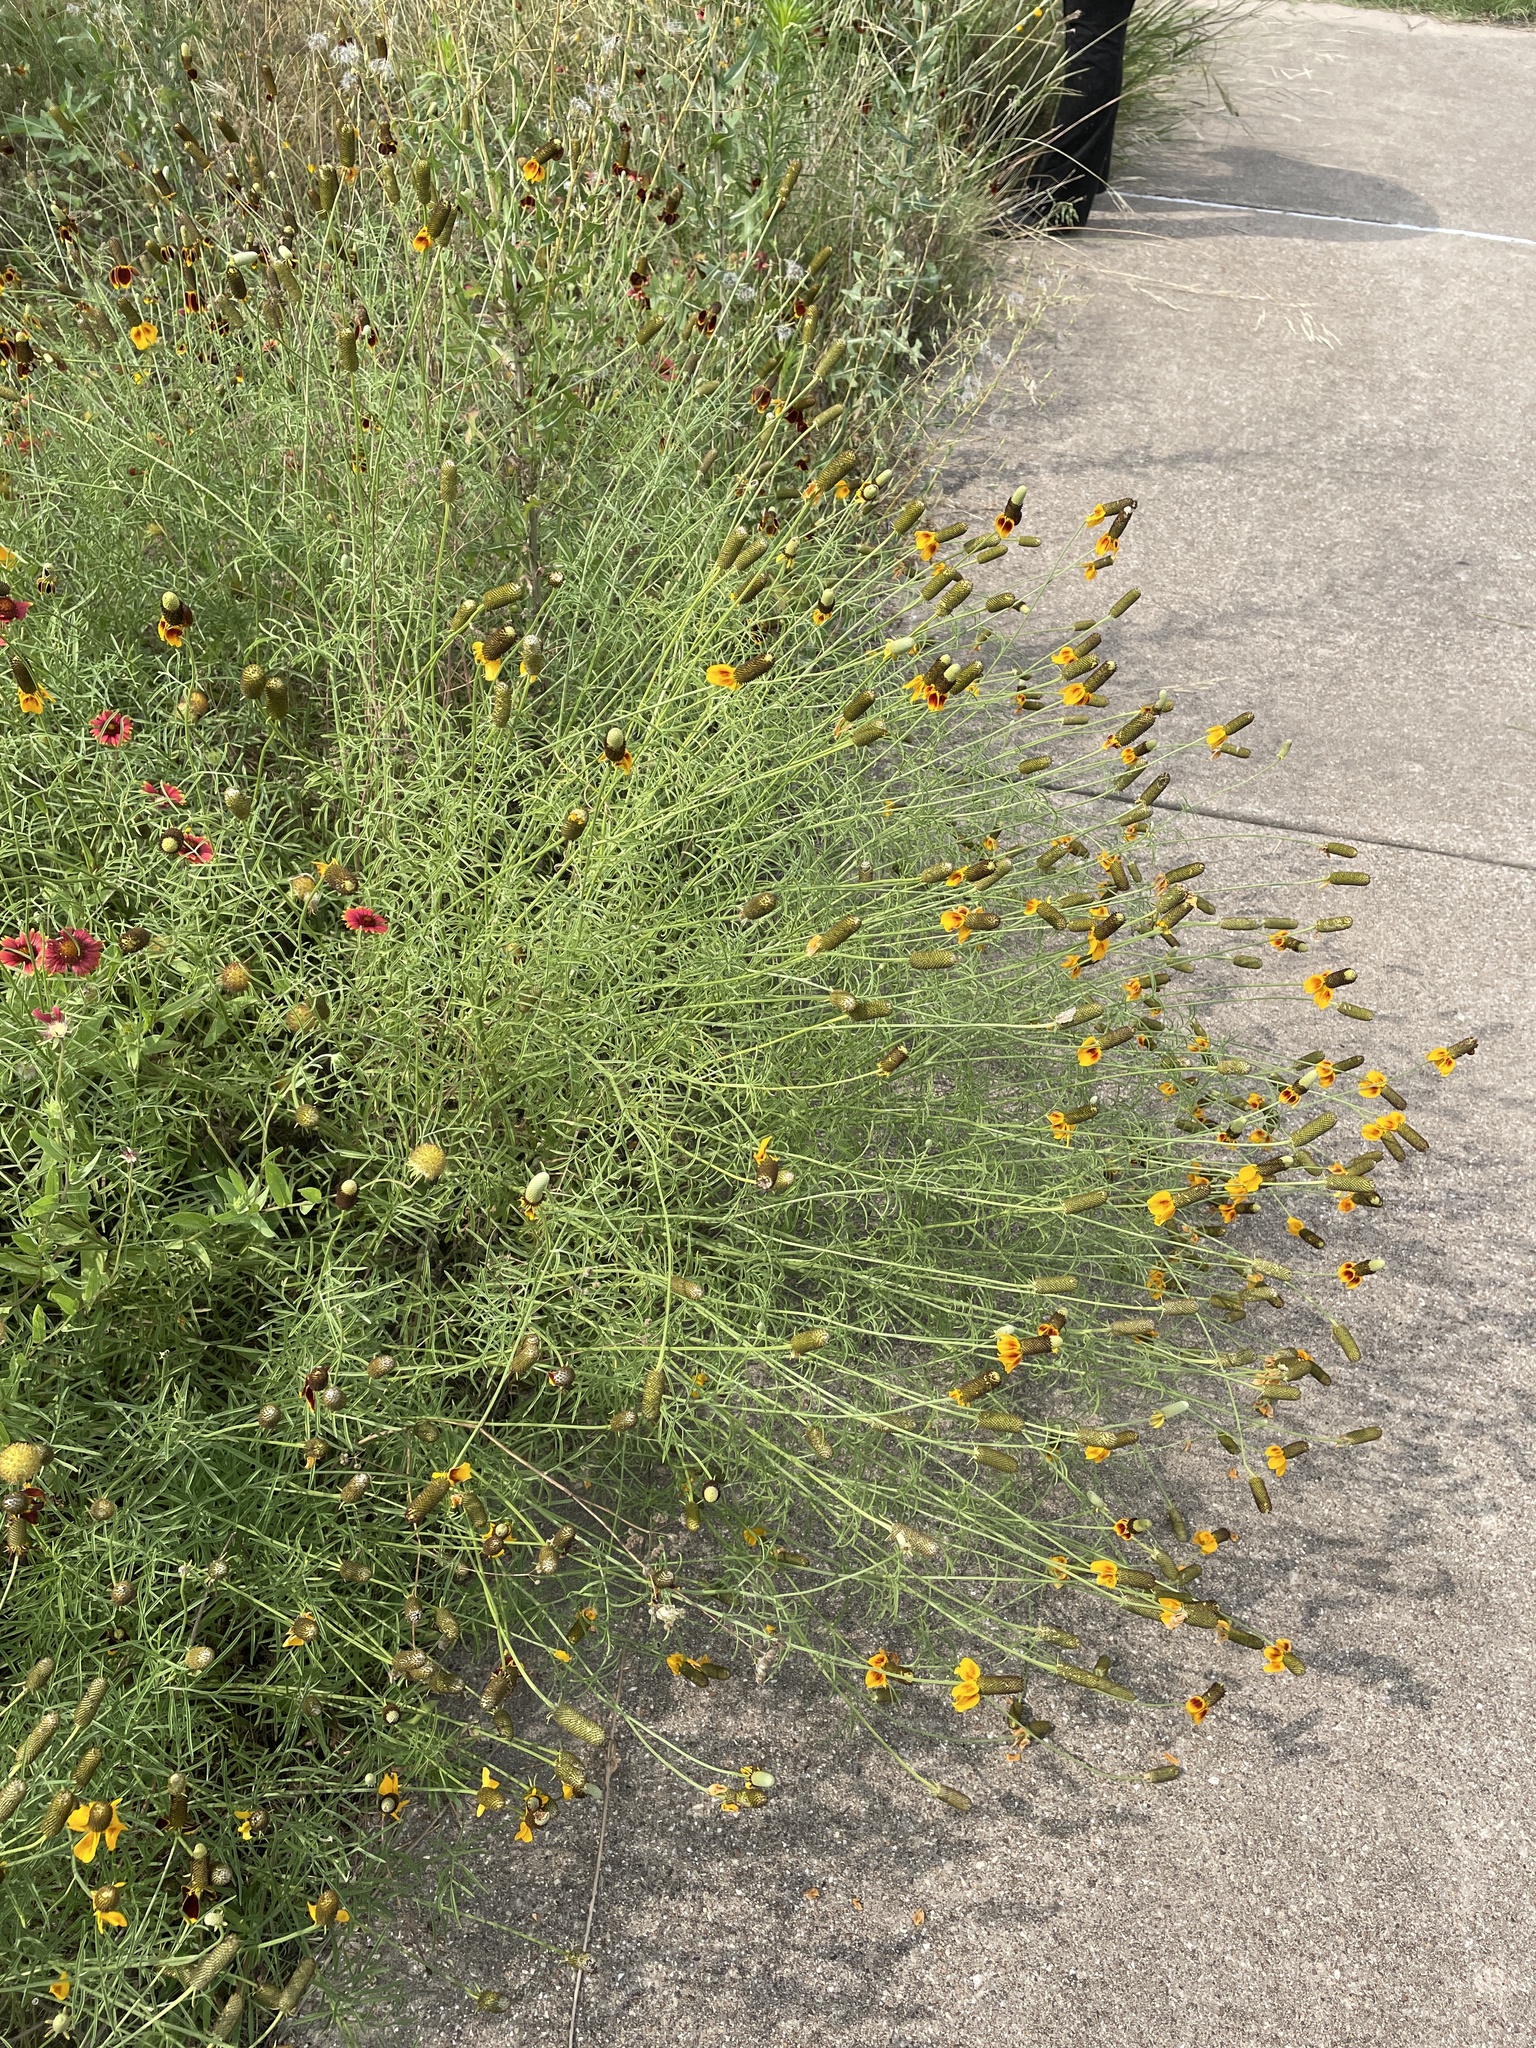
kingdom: Plantae
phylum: Tracheophyta
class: Magnoliopsida
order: Asterales
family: Asteraceae
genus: Ratibida
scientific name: Ratibida columnifera
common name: Prairie coneflower
